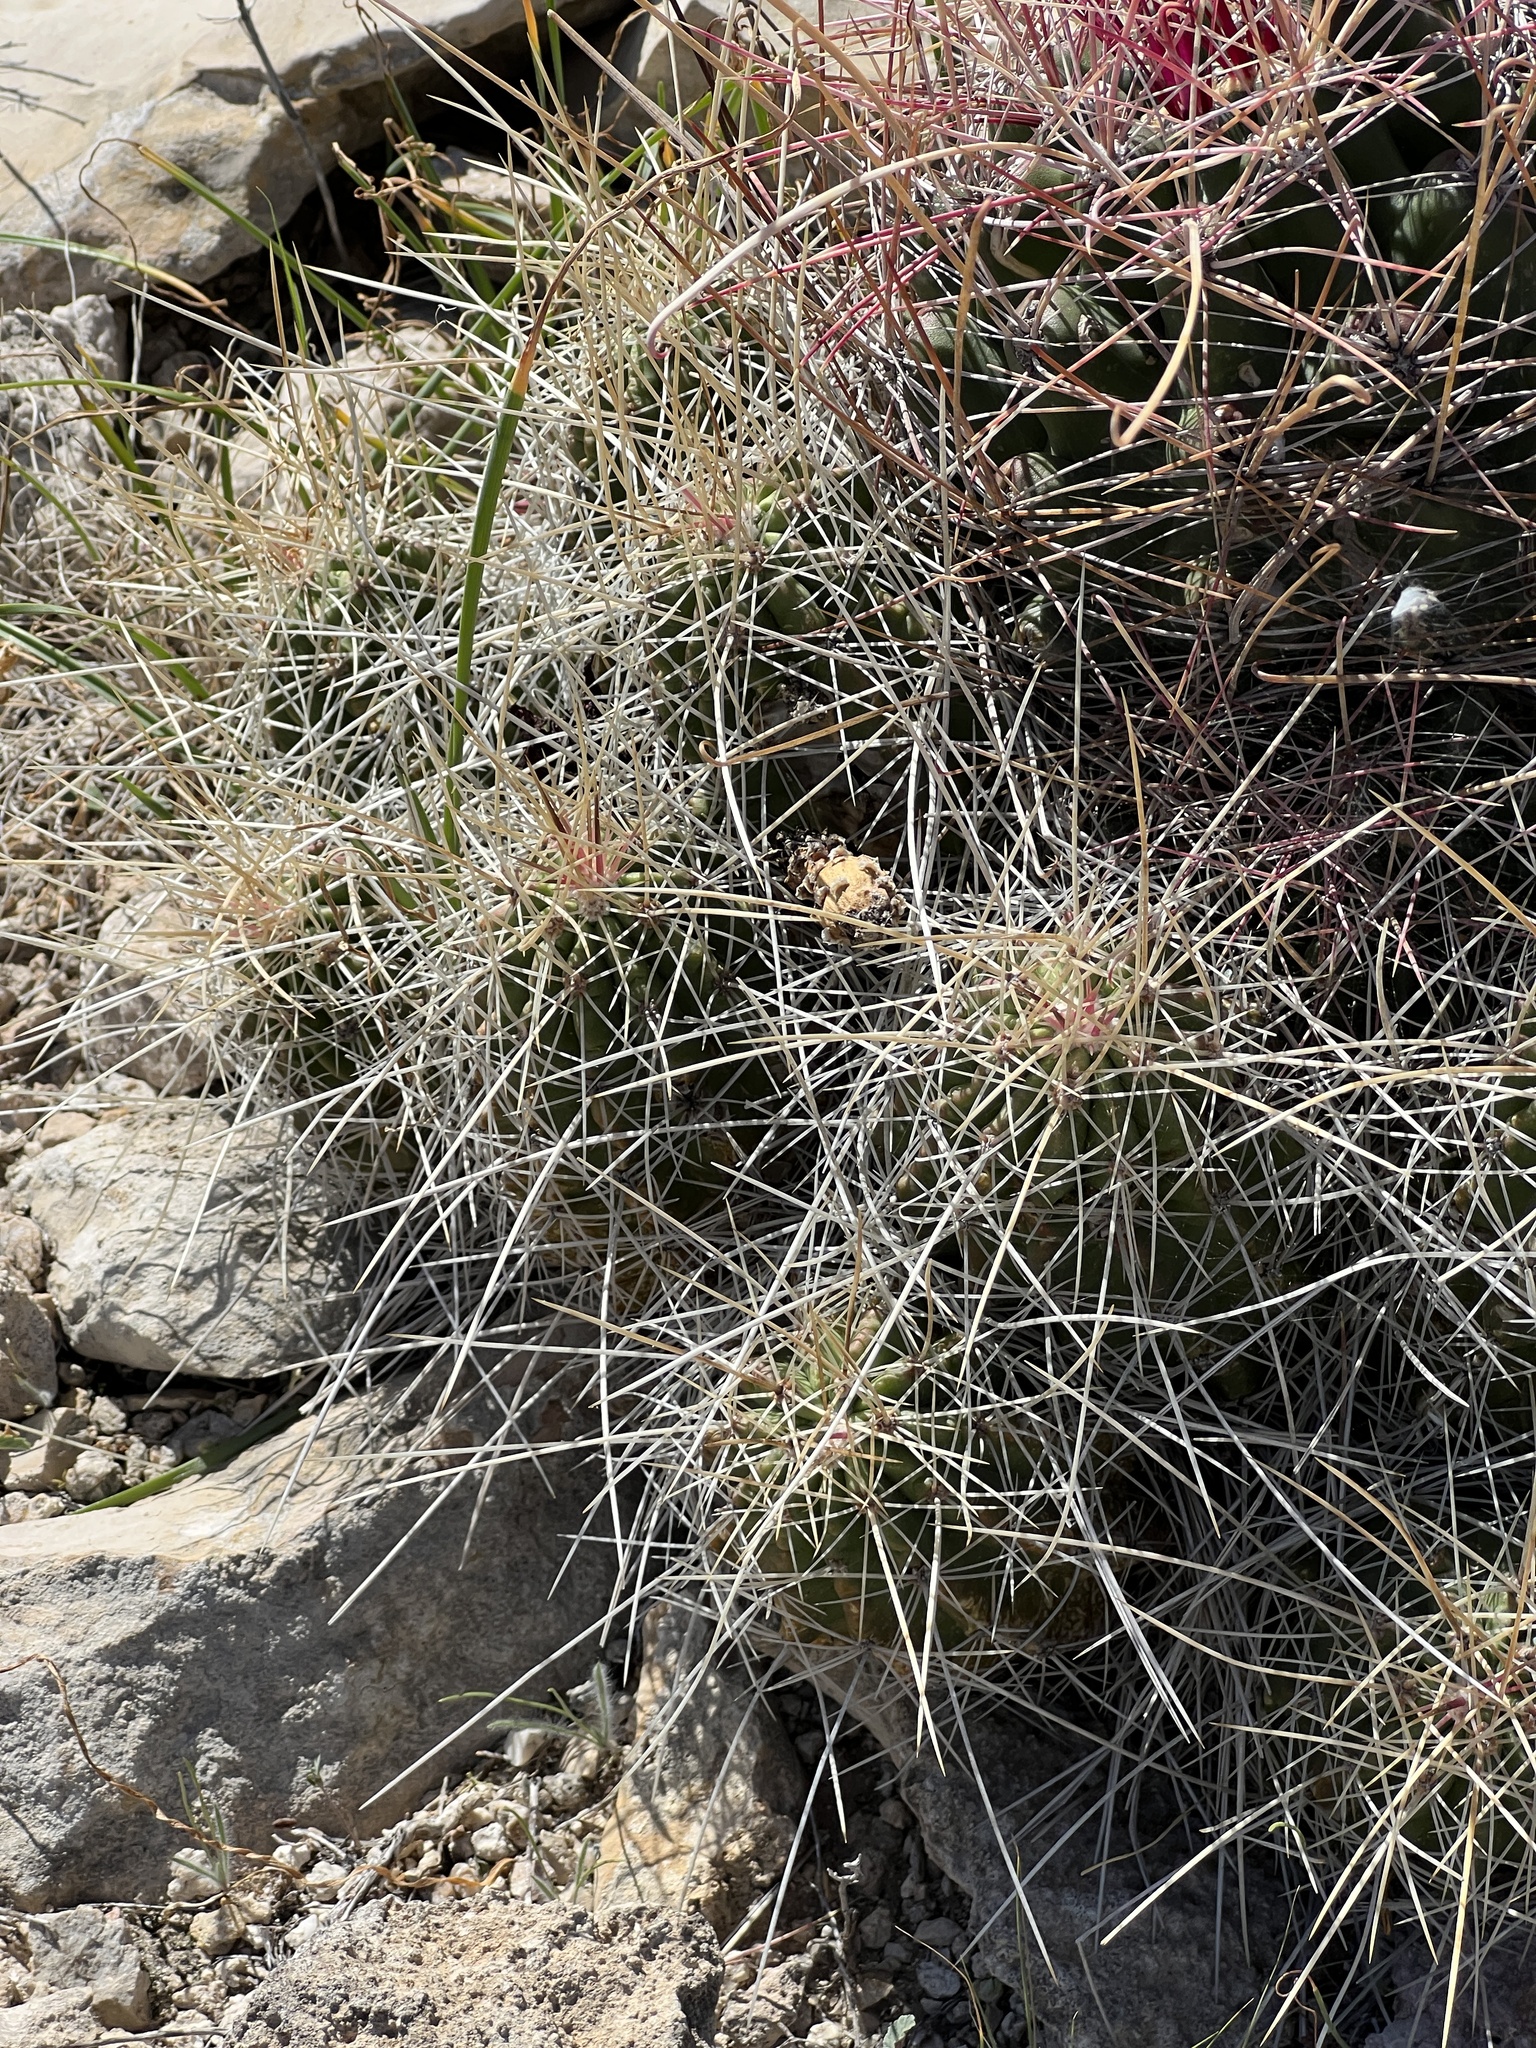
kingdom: Plantae
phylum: Tracheophyta
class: Magnoliopsida
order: Caryophyllales
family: Cactaceae
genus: Echinocereus
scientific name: Echinocereus stramineus
